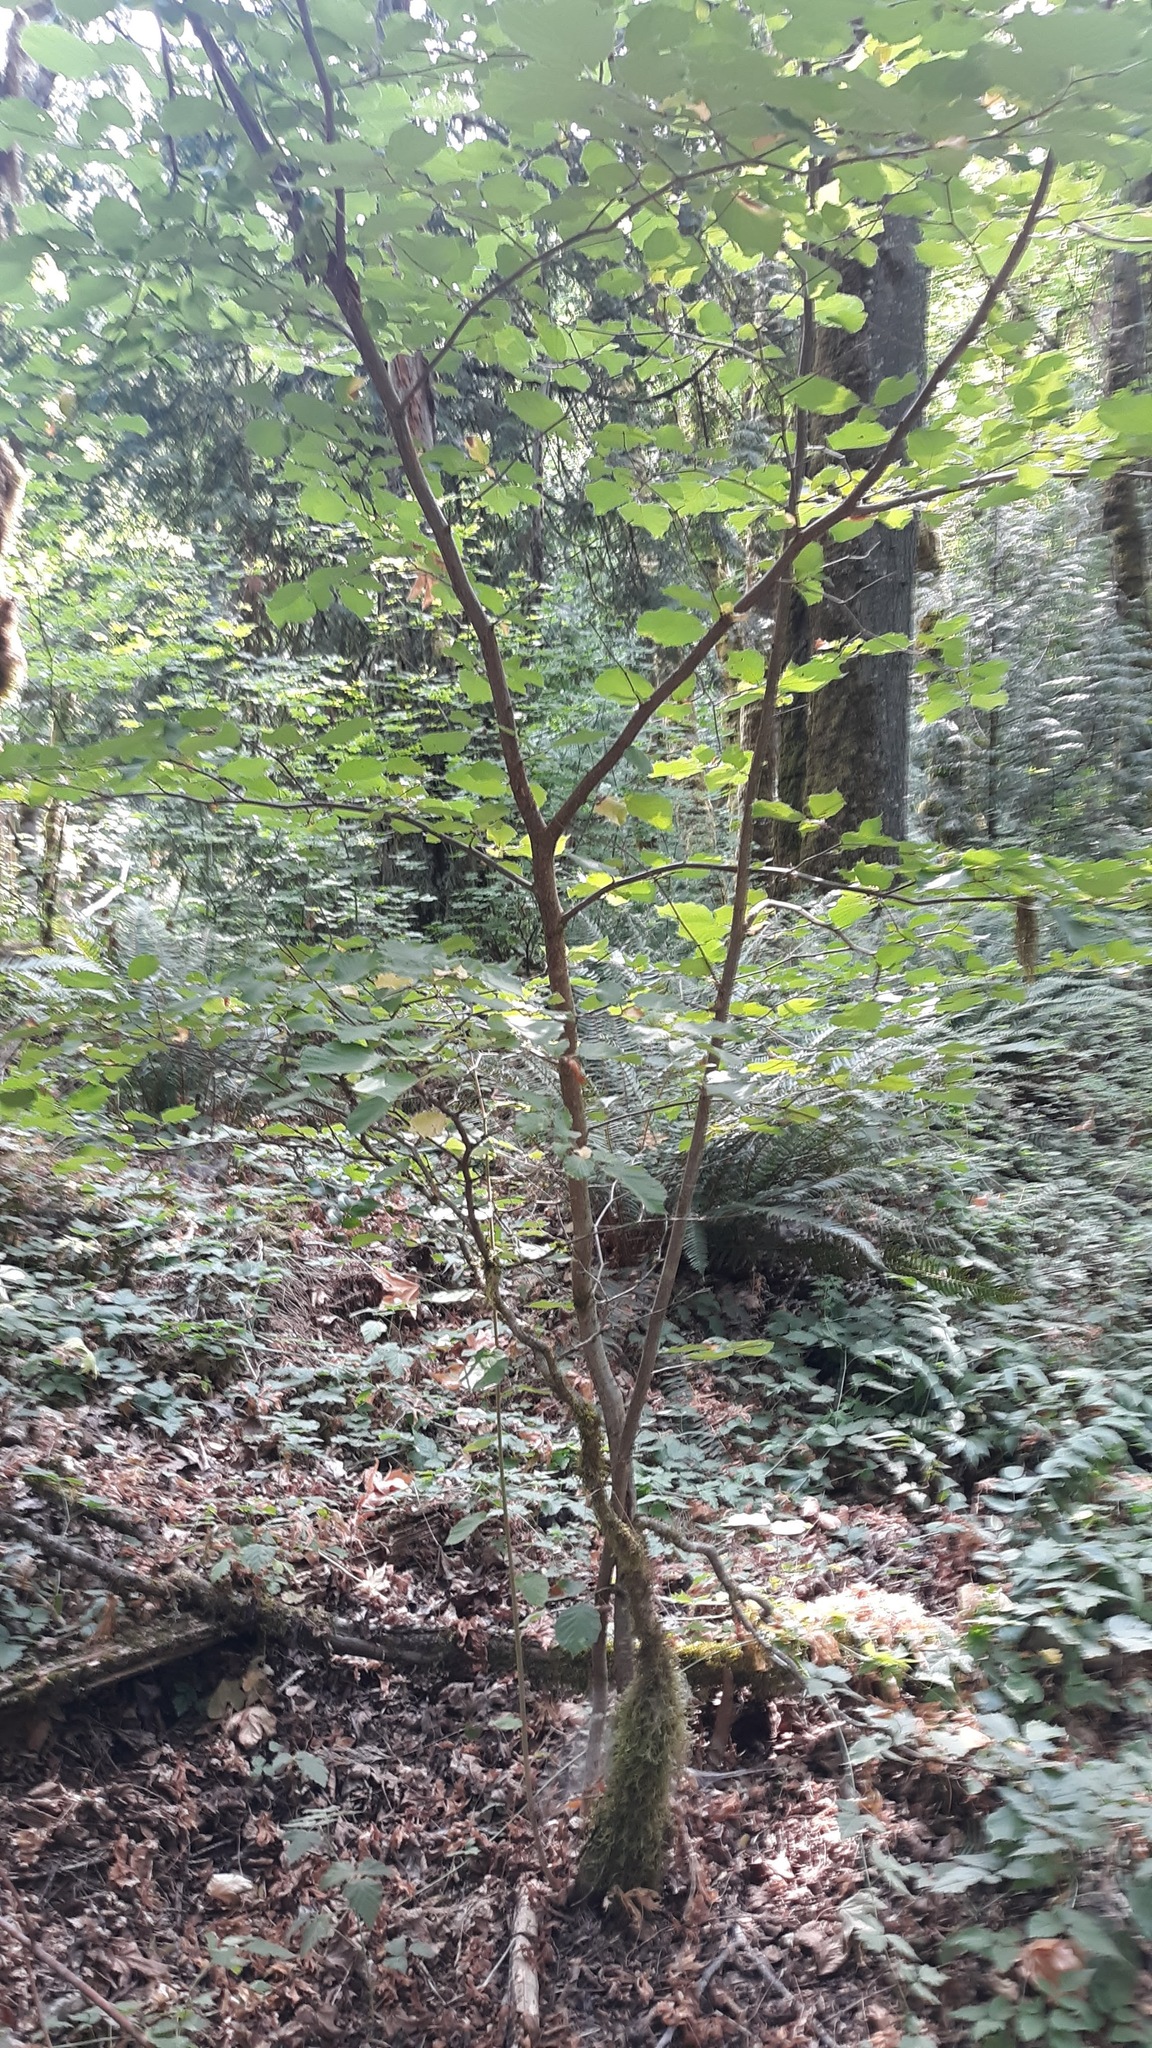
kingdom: Plantae
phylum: Tracheophyta
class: Magnoliopsida
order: Fagales
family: Betulaceae
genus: Corylus
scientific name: Corylus cornuta
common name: Beaked hazel
